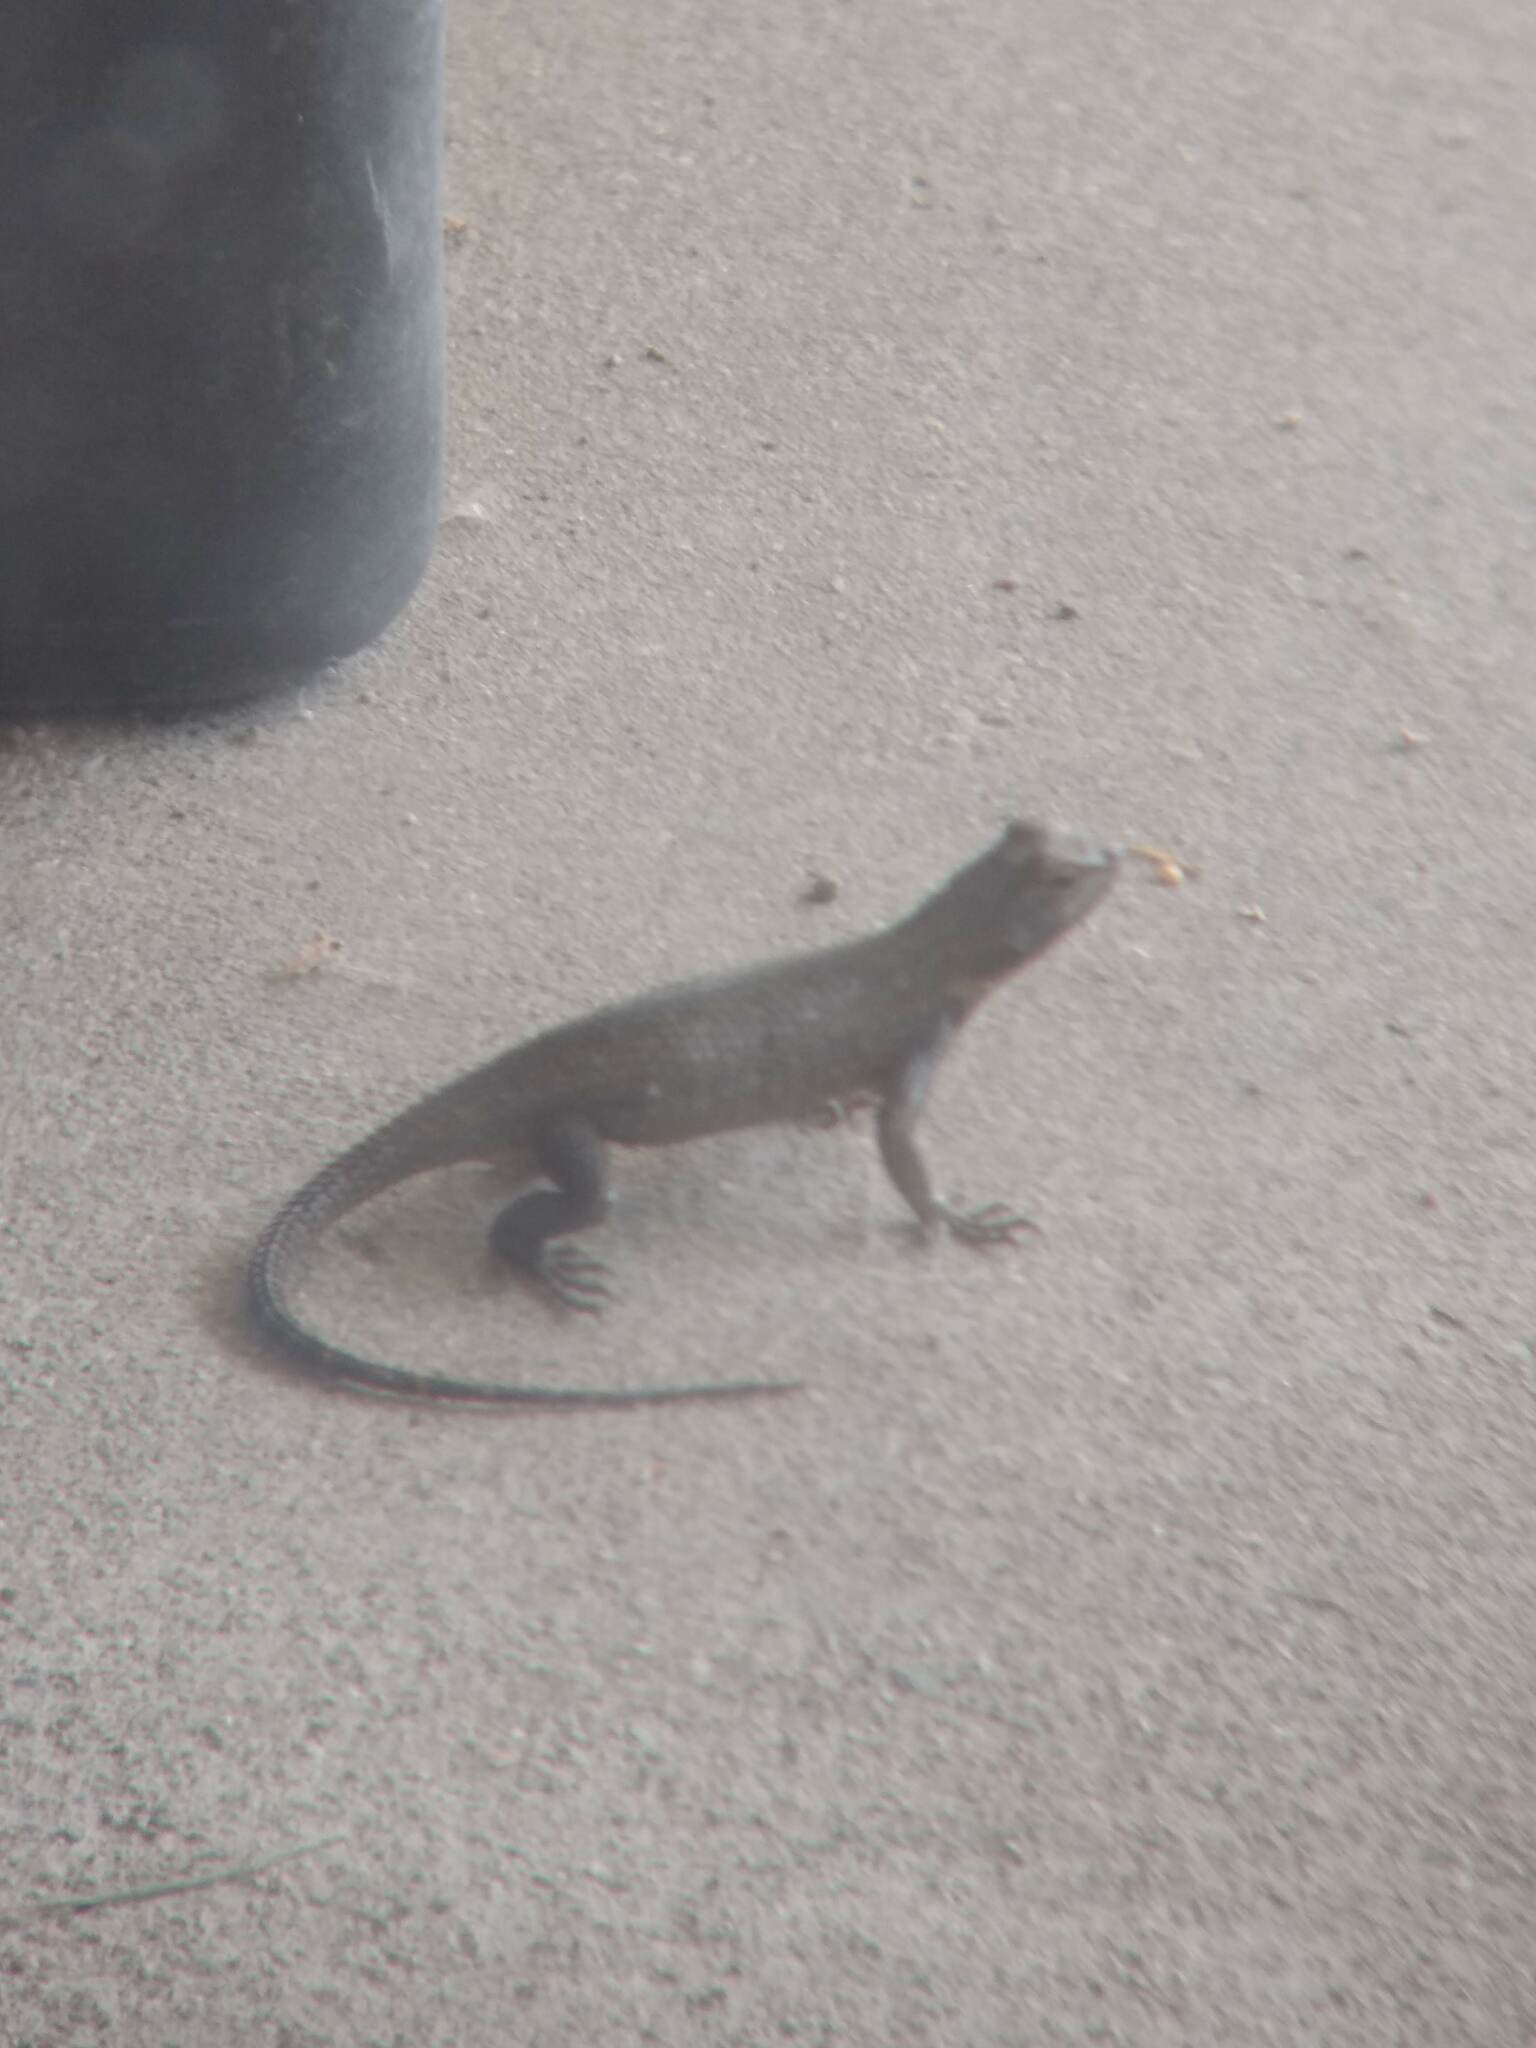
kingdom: Animalia
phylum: Chordata
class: Squamata
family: Phrynosomatidae
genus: Sceloporus
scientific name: Sceloporus occidentalis
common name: Western fence lizard
